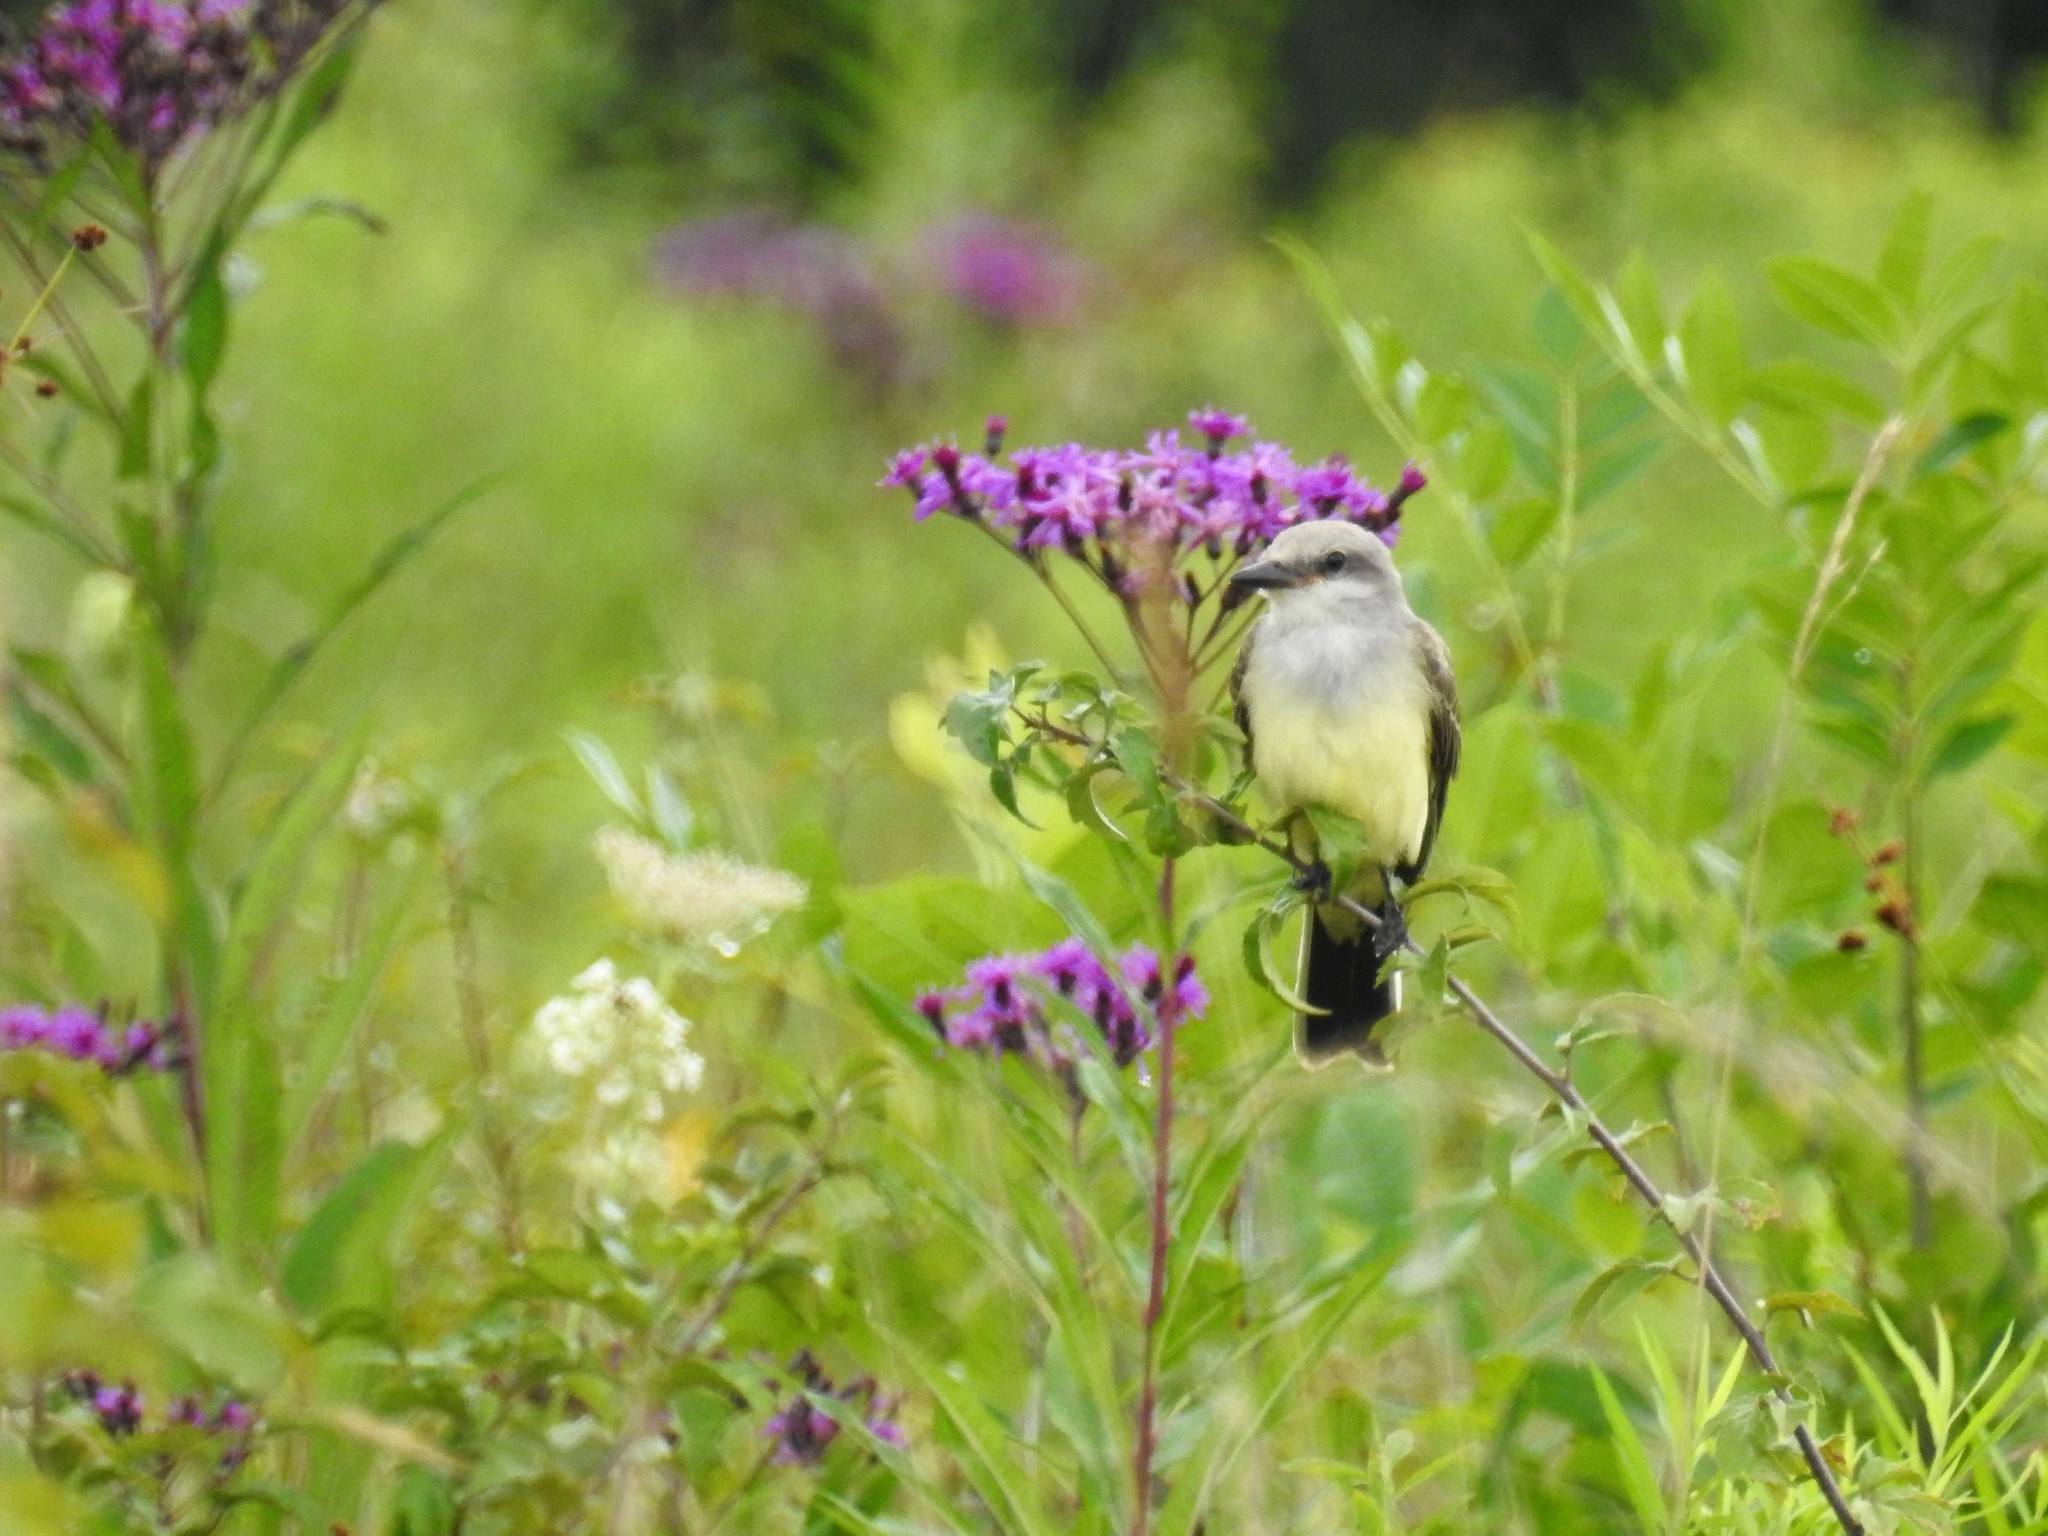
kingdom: Animalia
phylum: Chordata
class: Aves
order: Passeriformes
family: Tyrannidae
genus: Tyrannus
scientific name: Tyrannus verticalis
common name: Western kingbird
